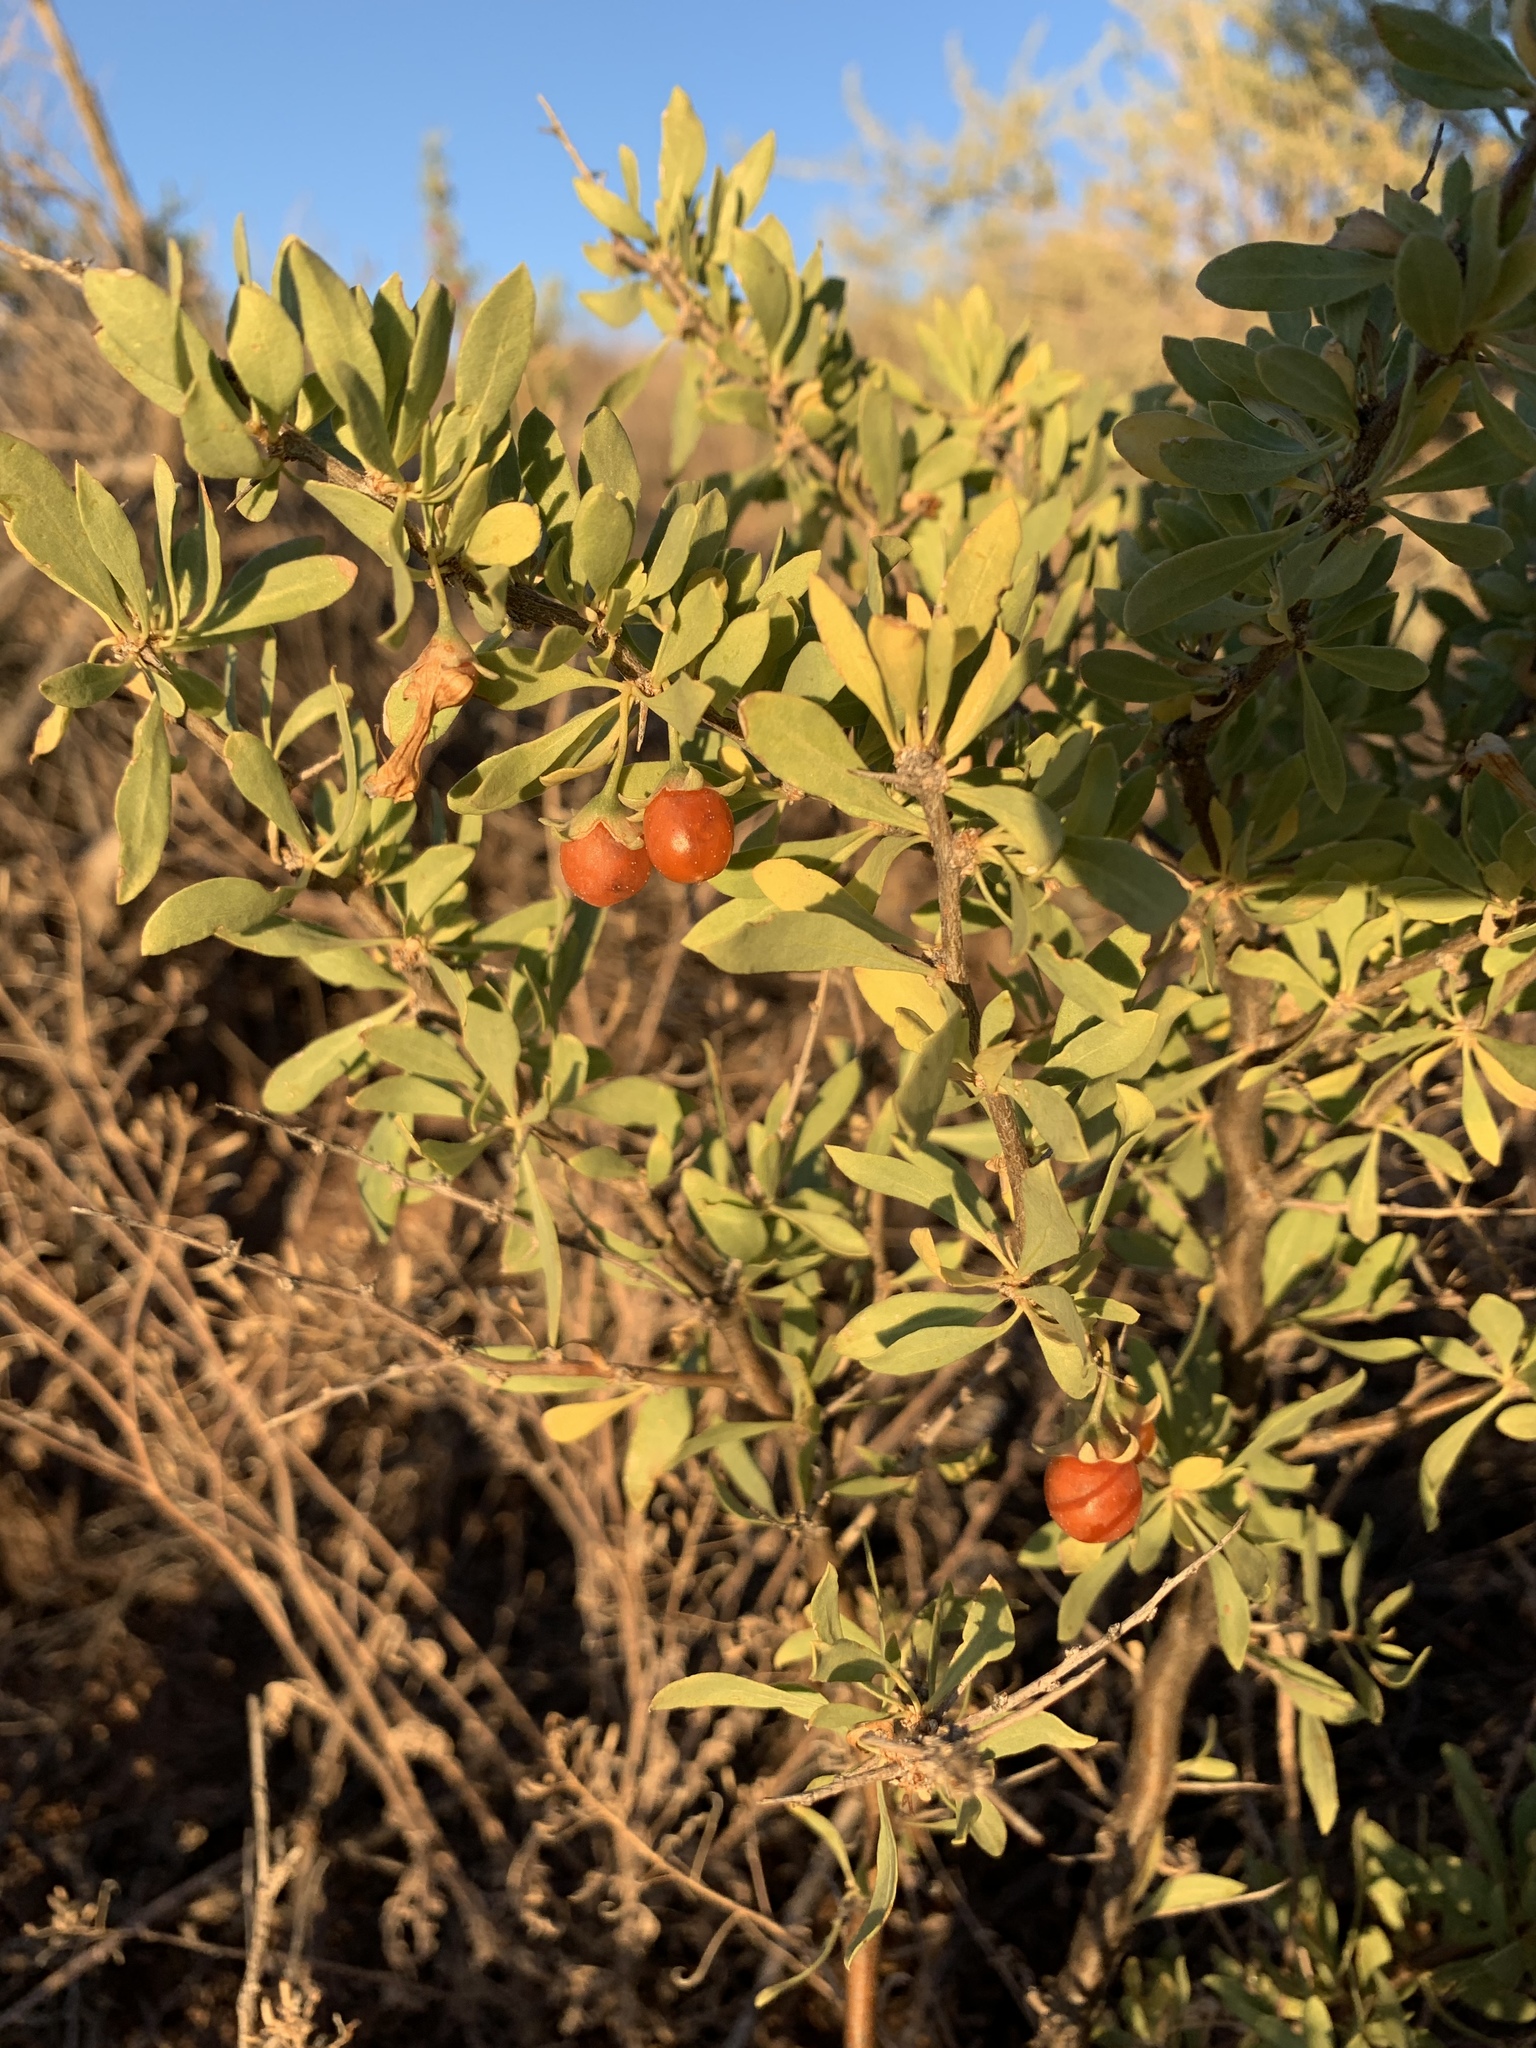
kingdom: Plantae
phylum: Tracheophyta
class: Magnoliopsida
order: Solanales
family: Solanaceae
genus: Lycium
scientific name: Lycium pallidum
